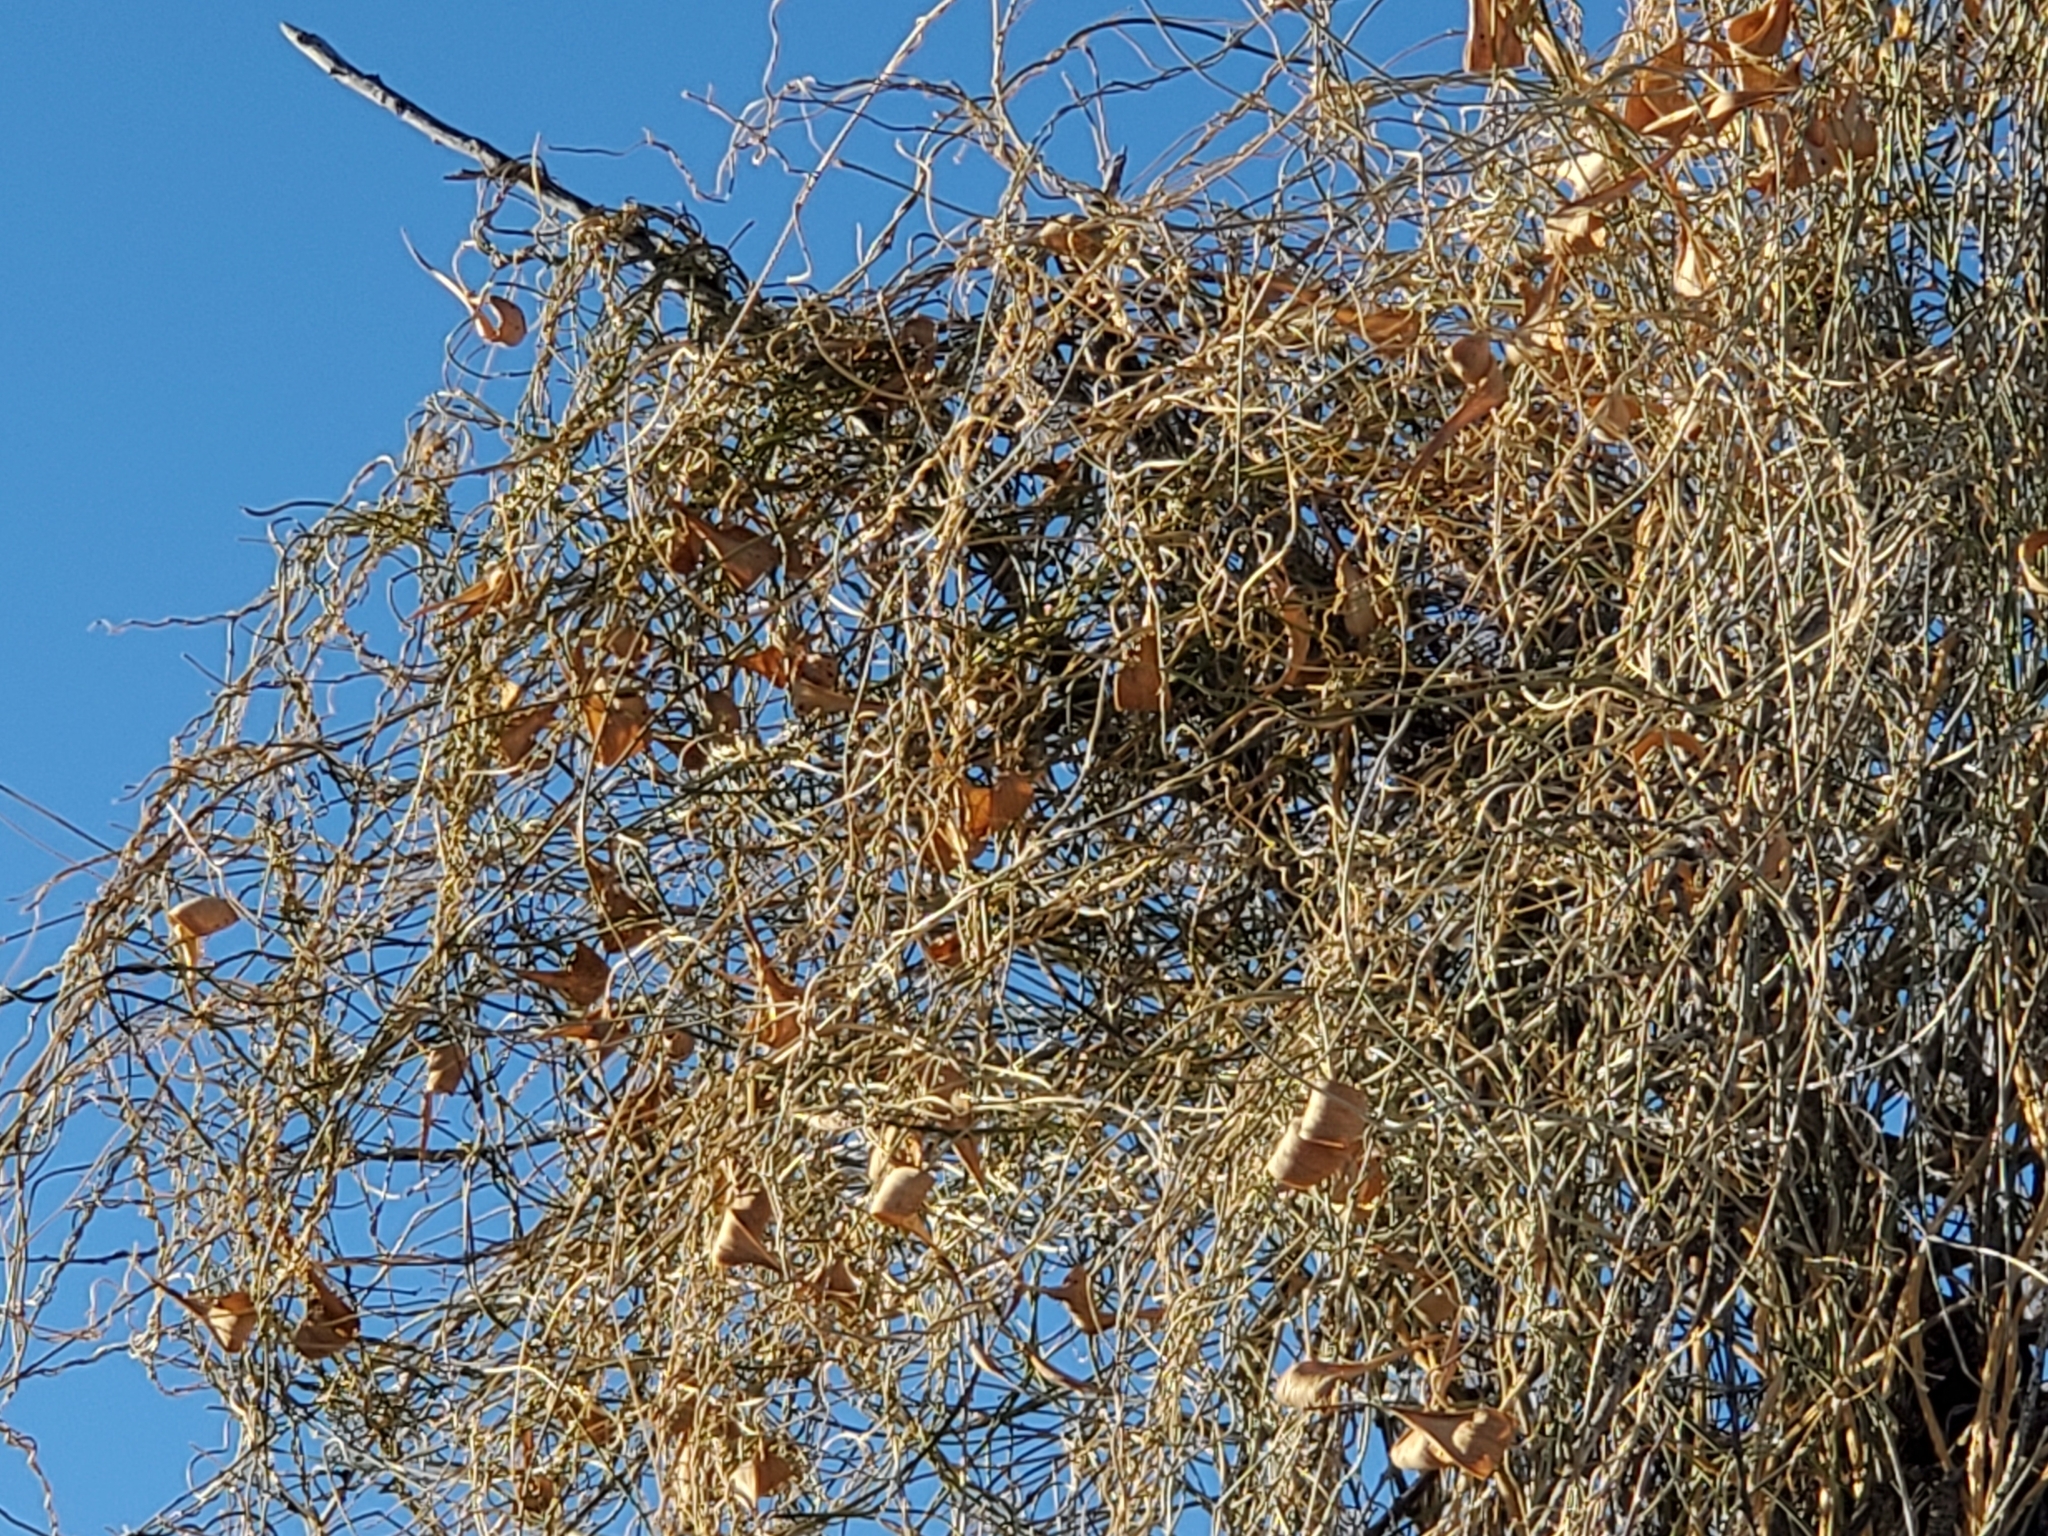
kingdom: Plantae
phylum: Tracheophyta
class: Magnoliopsida
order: Gentianales
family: Apocynaceae
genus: Funastrum
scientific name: Funastrum heterophyllum
